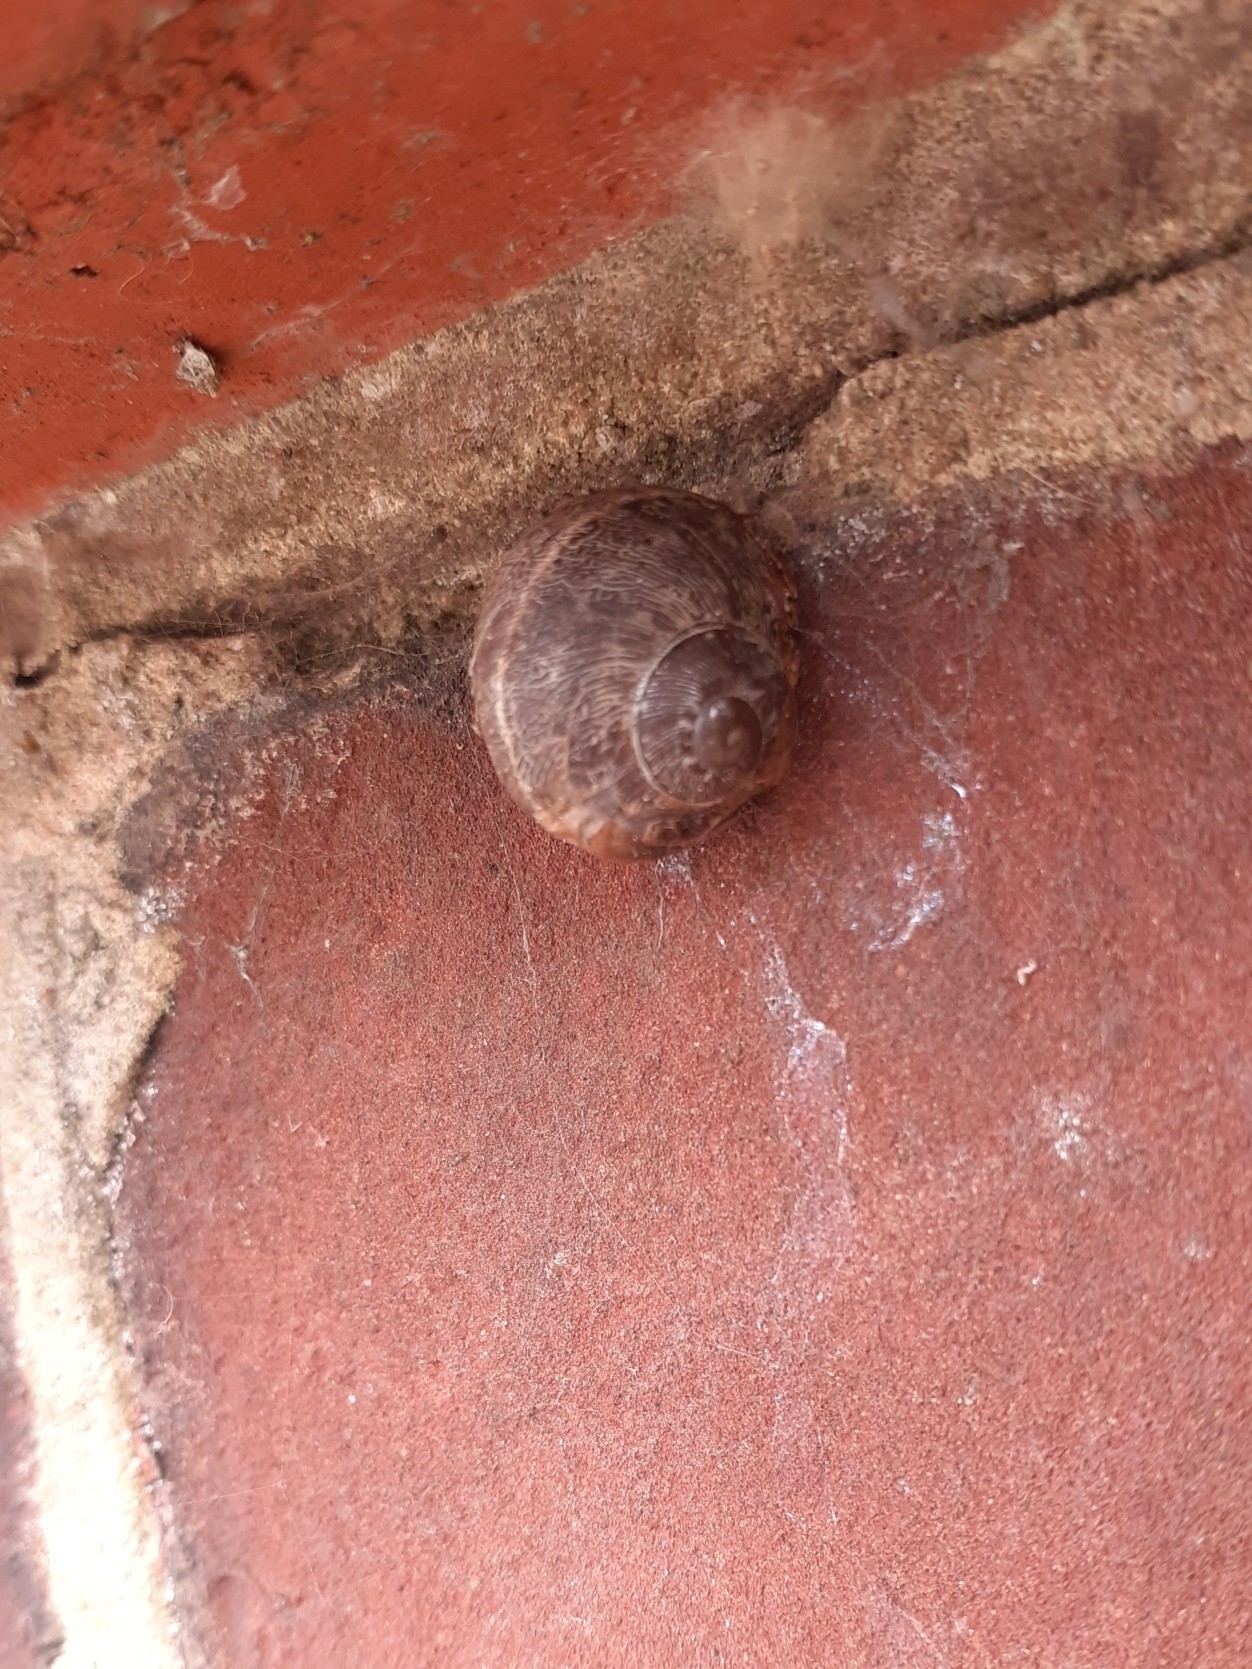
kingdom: Animalia
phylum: Mollusca
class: Gastropoda
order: Stylommatophora
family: Helicidae
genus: Cornu
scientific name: Cornu aspersum
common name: Brown garden snail
